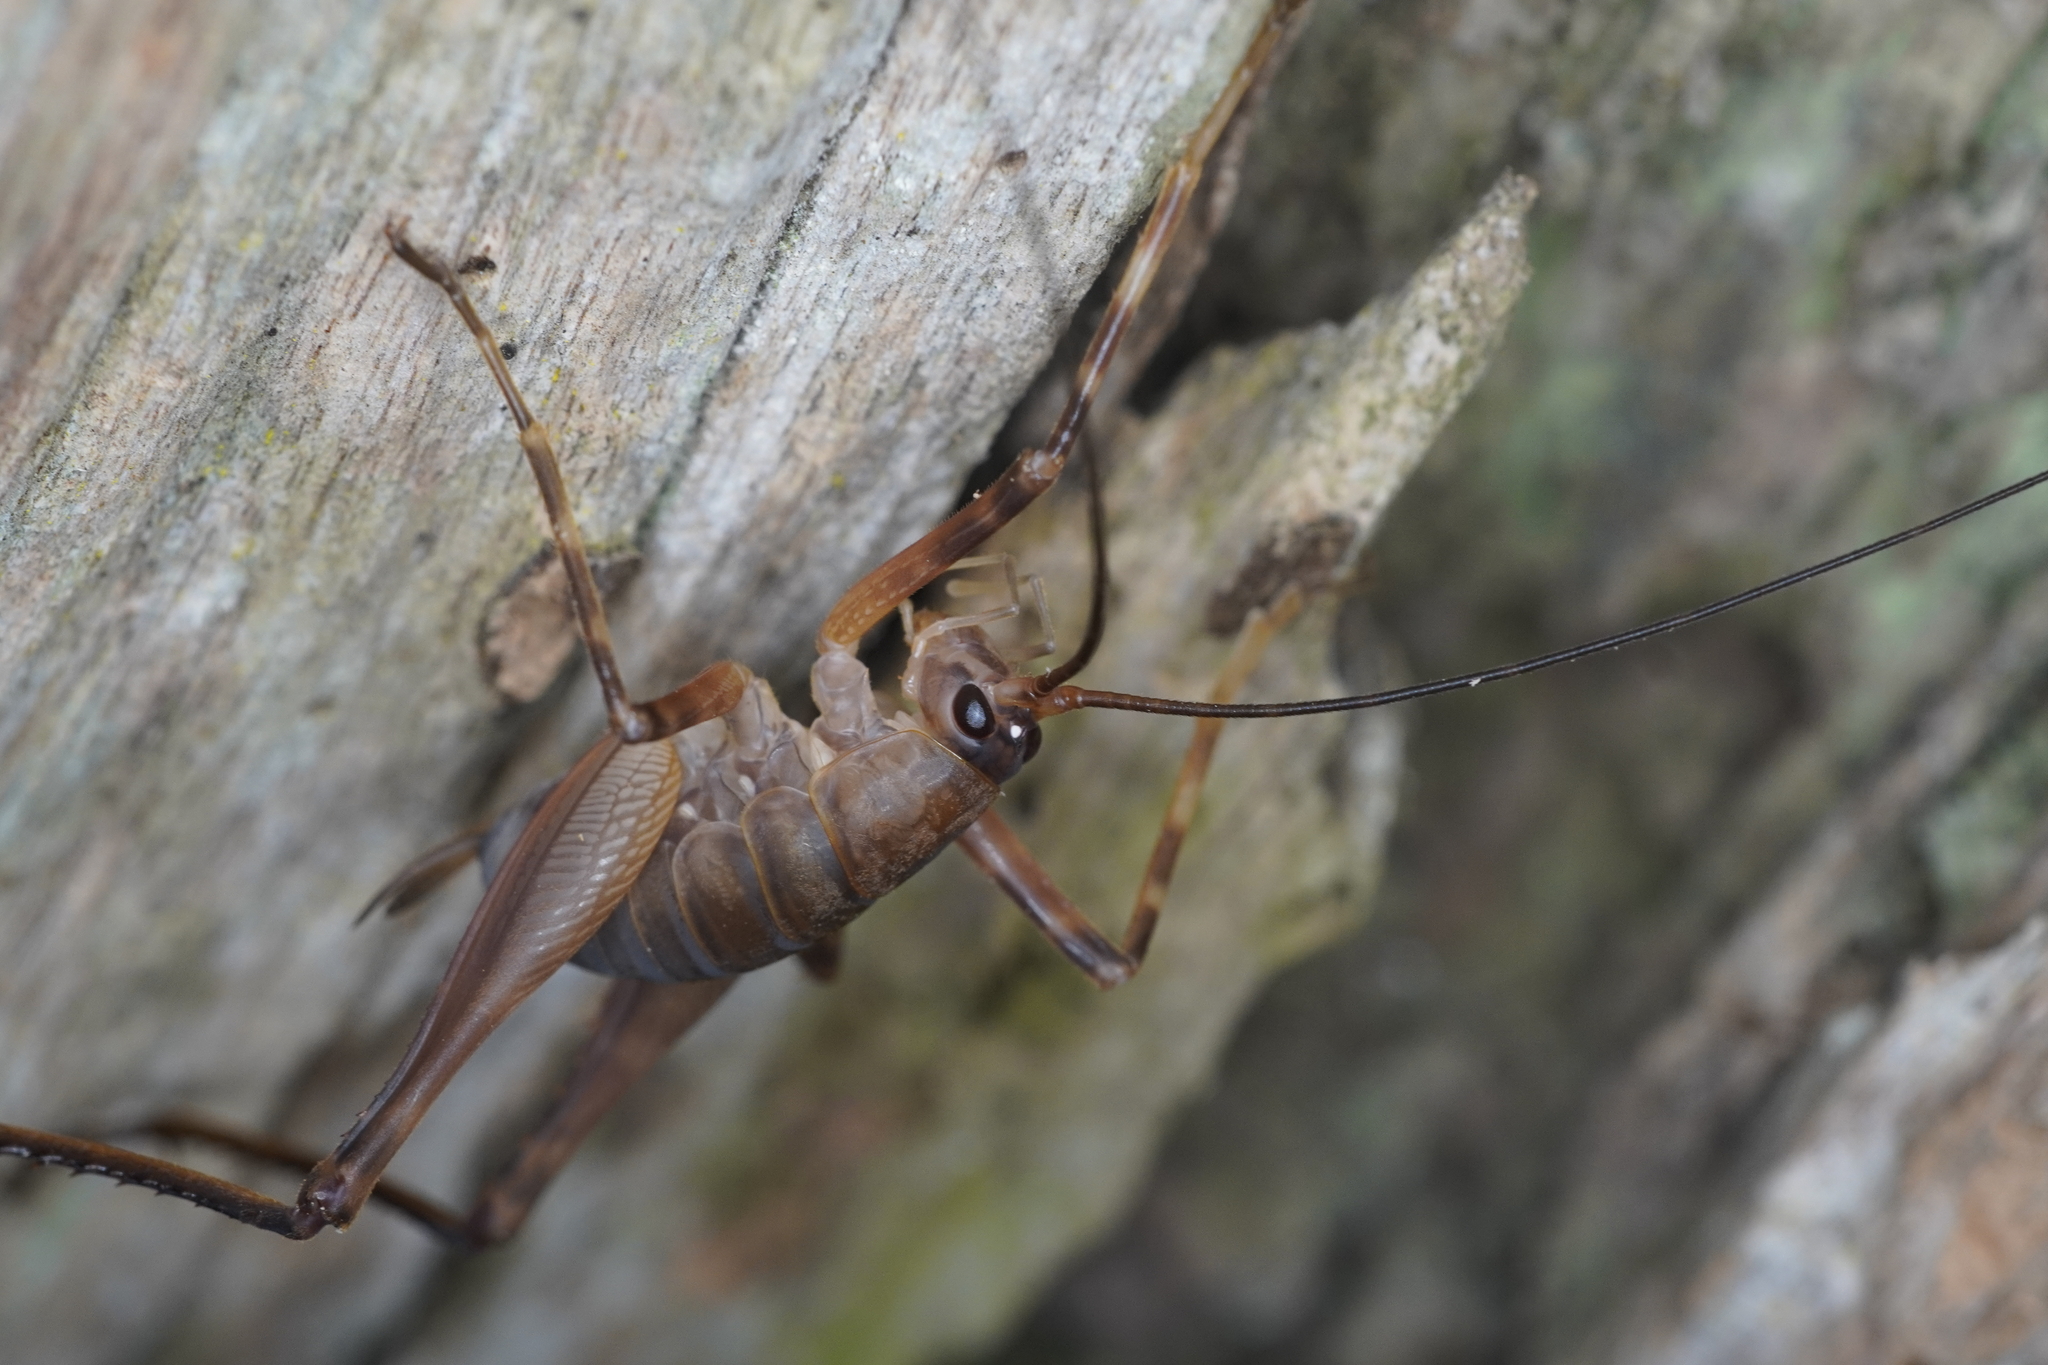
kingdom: Animalia
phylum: Arthropoda
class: Insecta
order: Orthoptera
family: Rhaphidophoridae
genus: Pachyrhamma
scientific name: Pachyrhamma longipes
